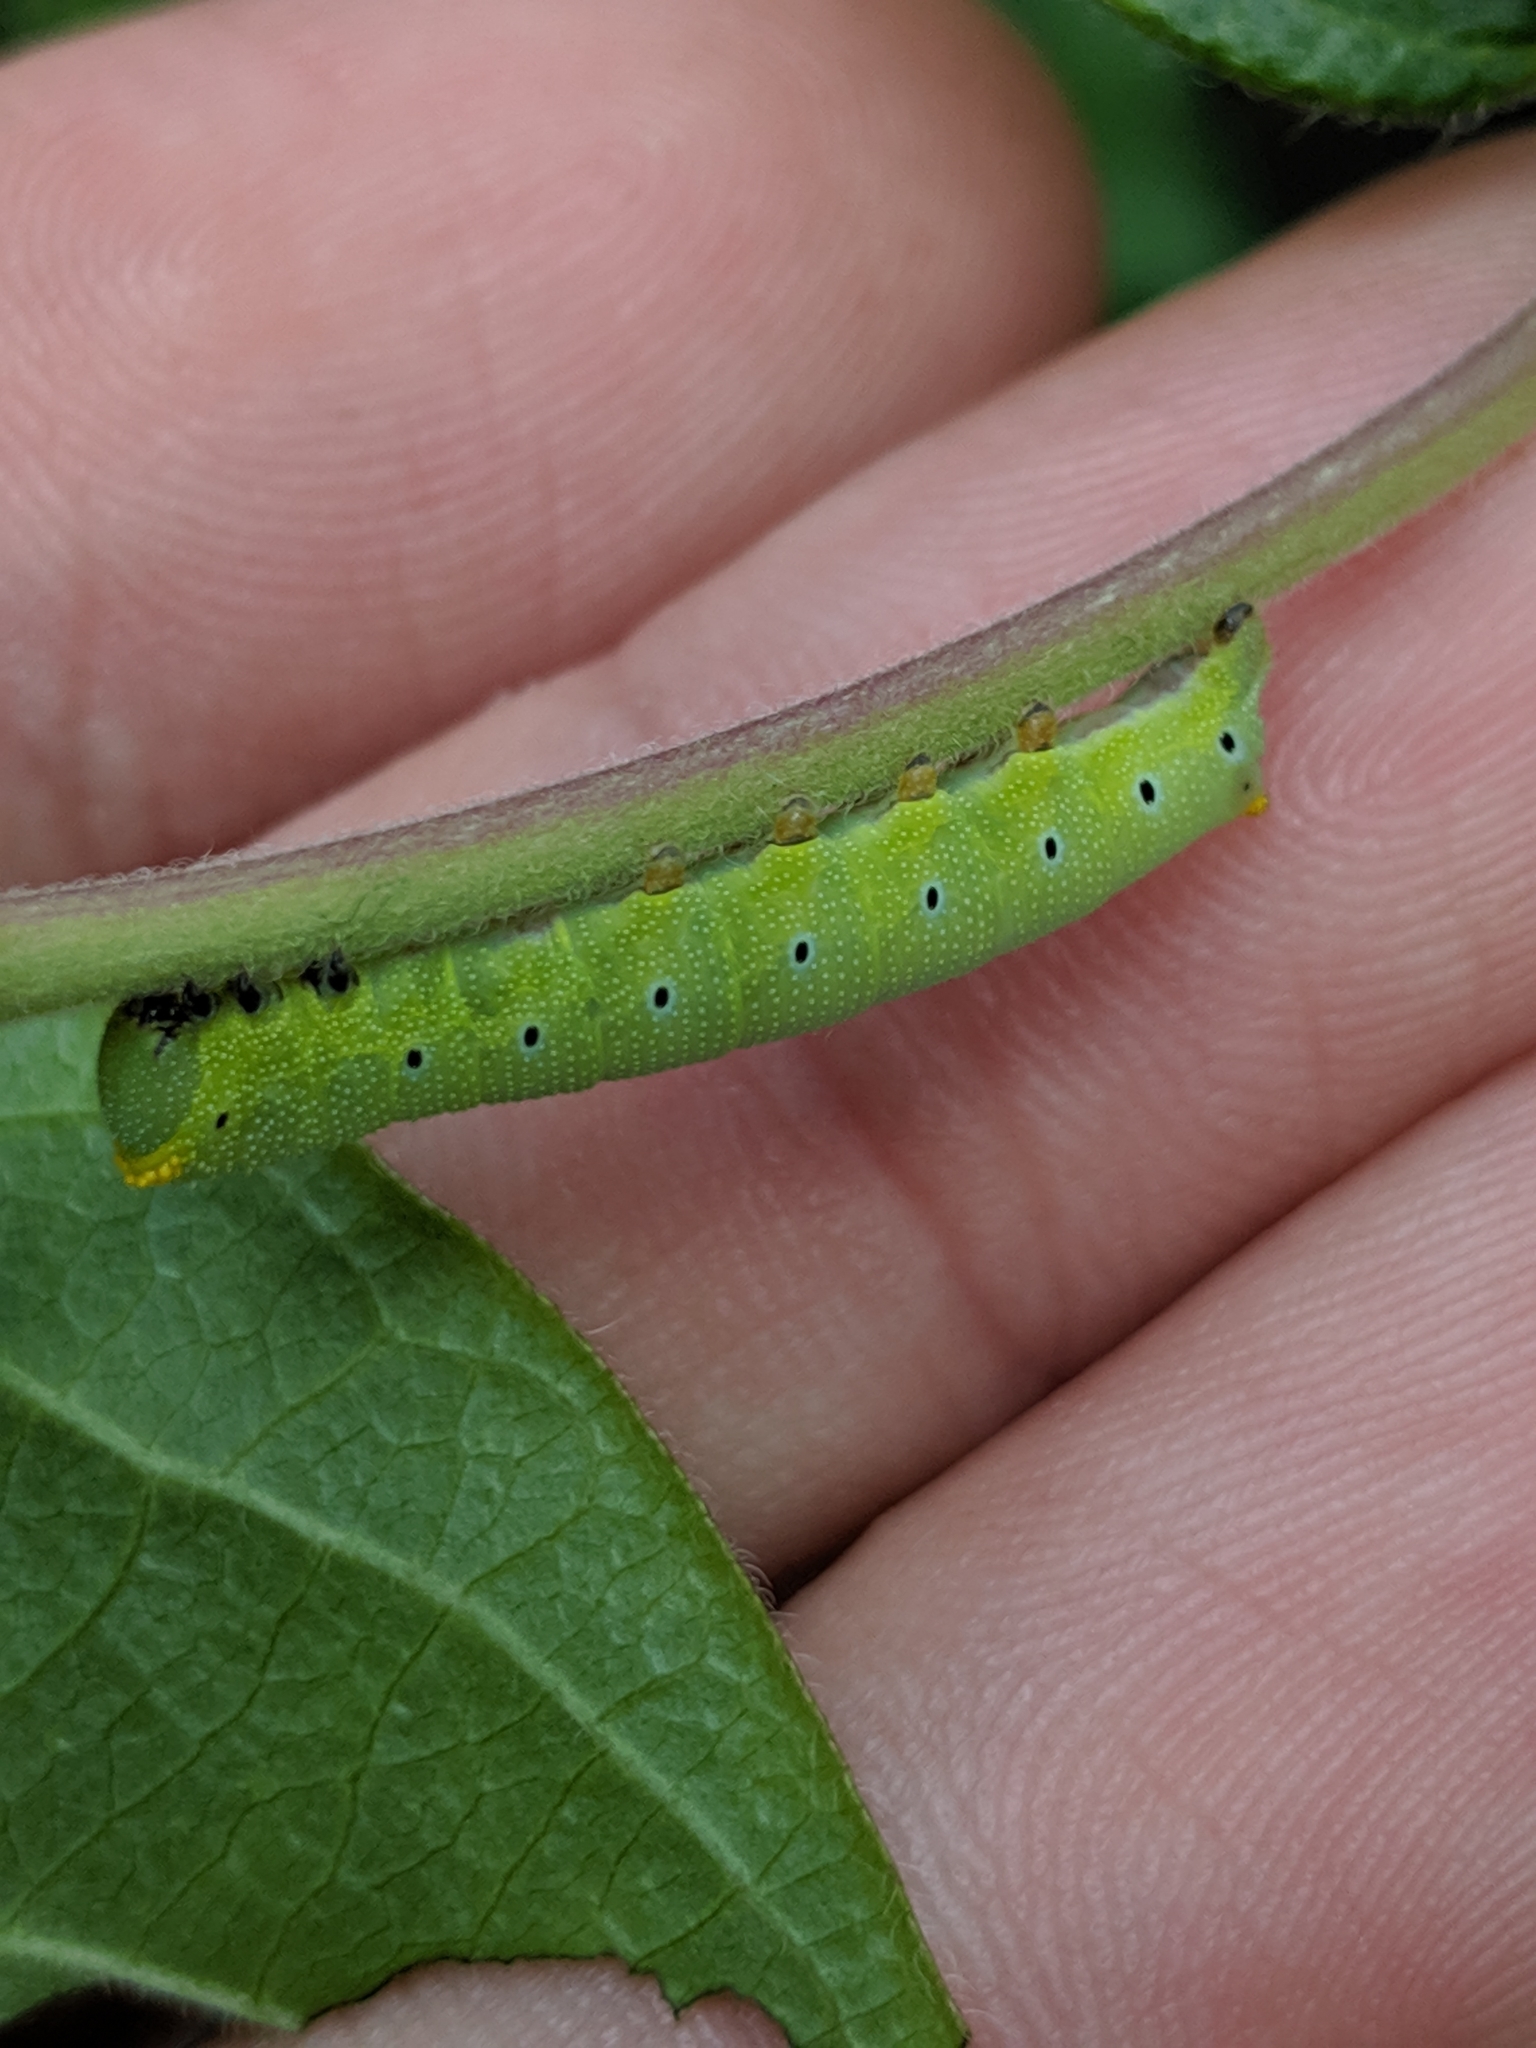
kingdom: Animalia
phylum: Arthropoda
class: Insecta
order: Lepidoptera
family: Sphingidae
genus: Hemaris
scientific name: Hemaris diffinis
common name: Bumblebee moth
